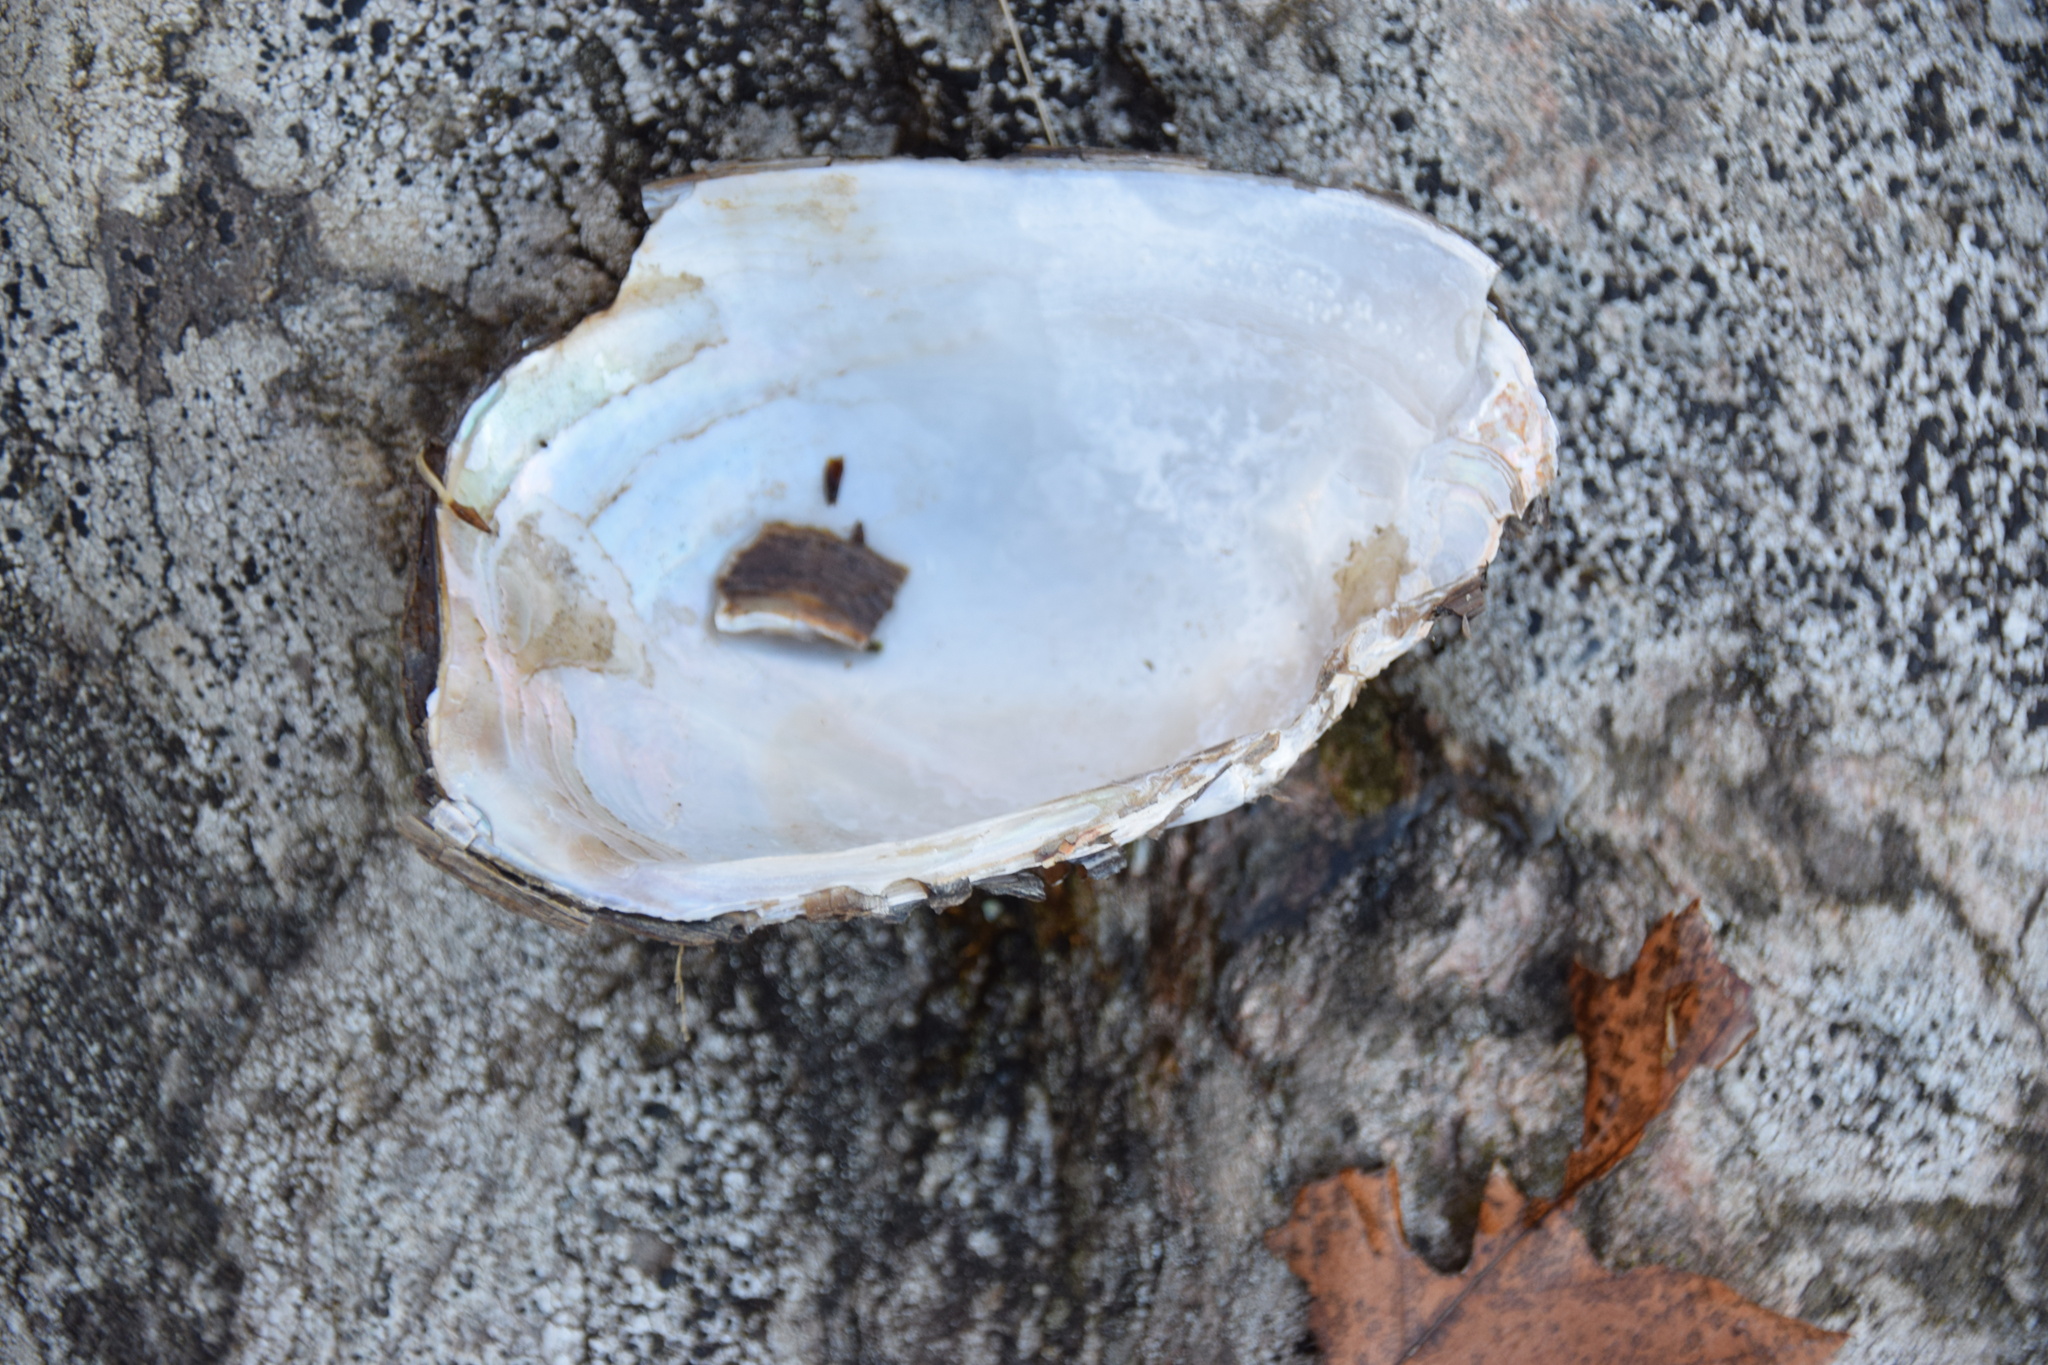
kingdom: Animalia
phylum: Mollusca
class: Bivalvia
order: Unionida
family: Unionidae
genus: Lampsilis
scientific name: Lampsilis siliquoidea
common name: Fatmucket
